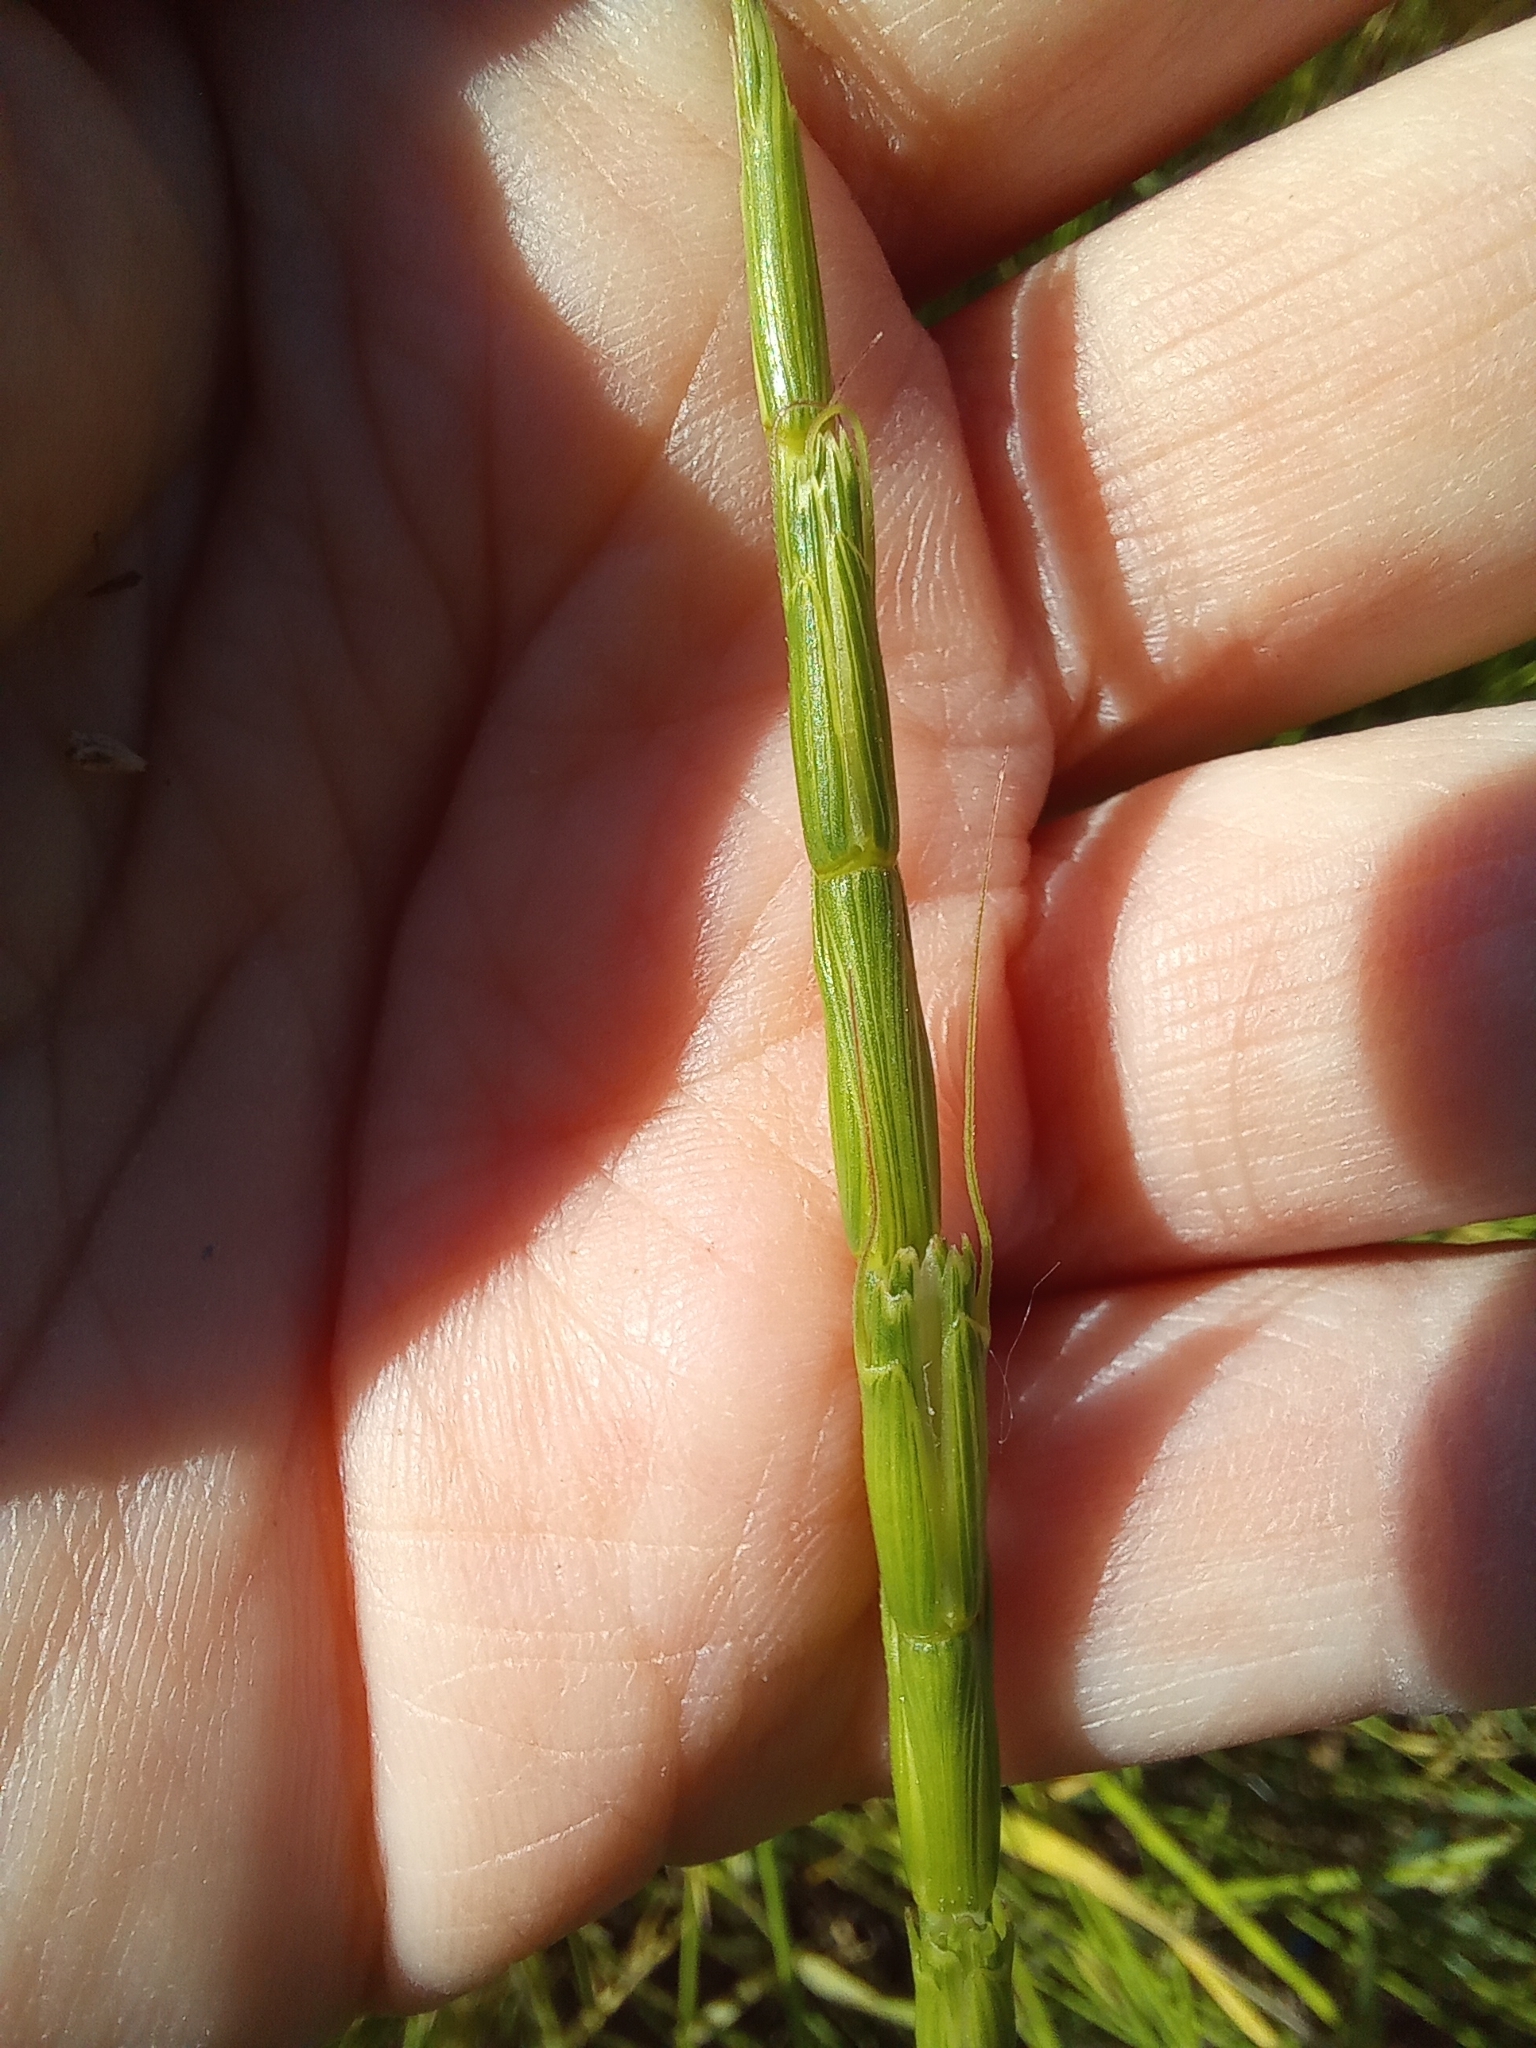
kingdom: Plantae
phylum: Tracheophyta
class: Liliopsida
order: Poales
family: Poaceae
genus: Aegilops
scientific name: Aegilops cylindrica
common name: Jointed goatgrass
